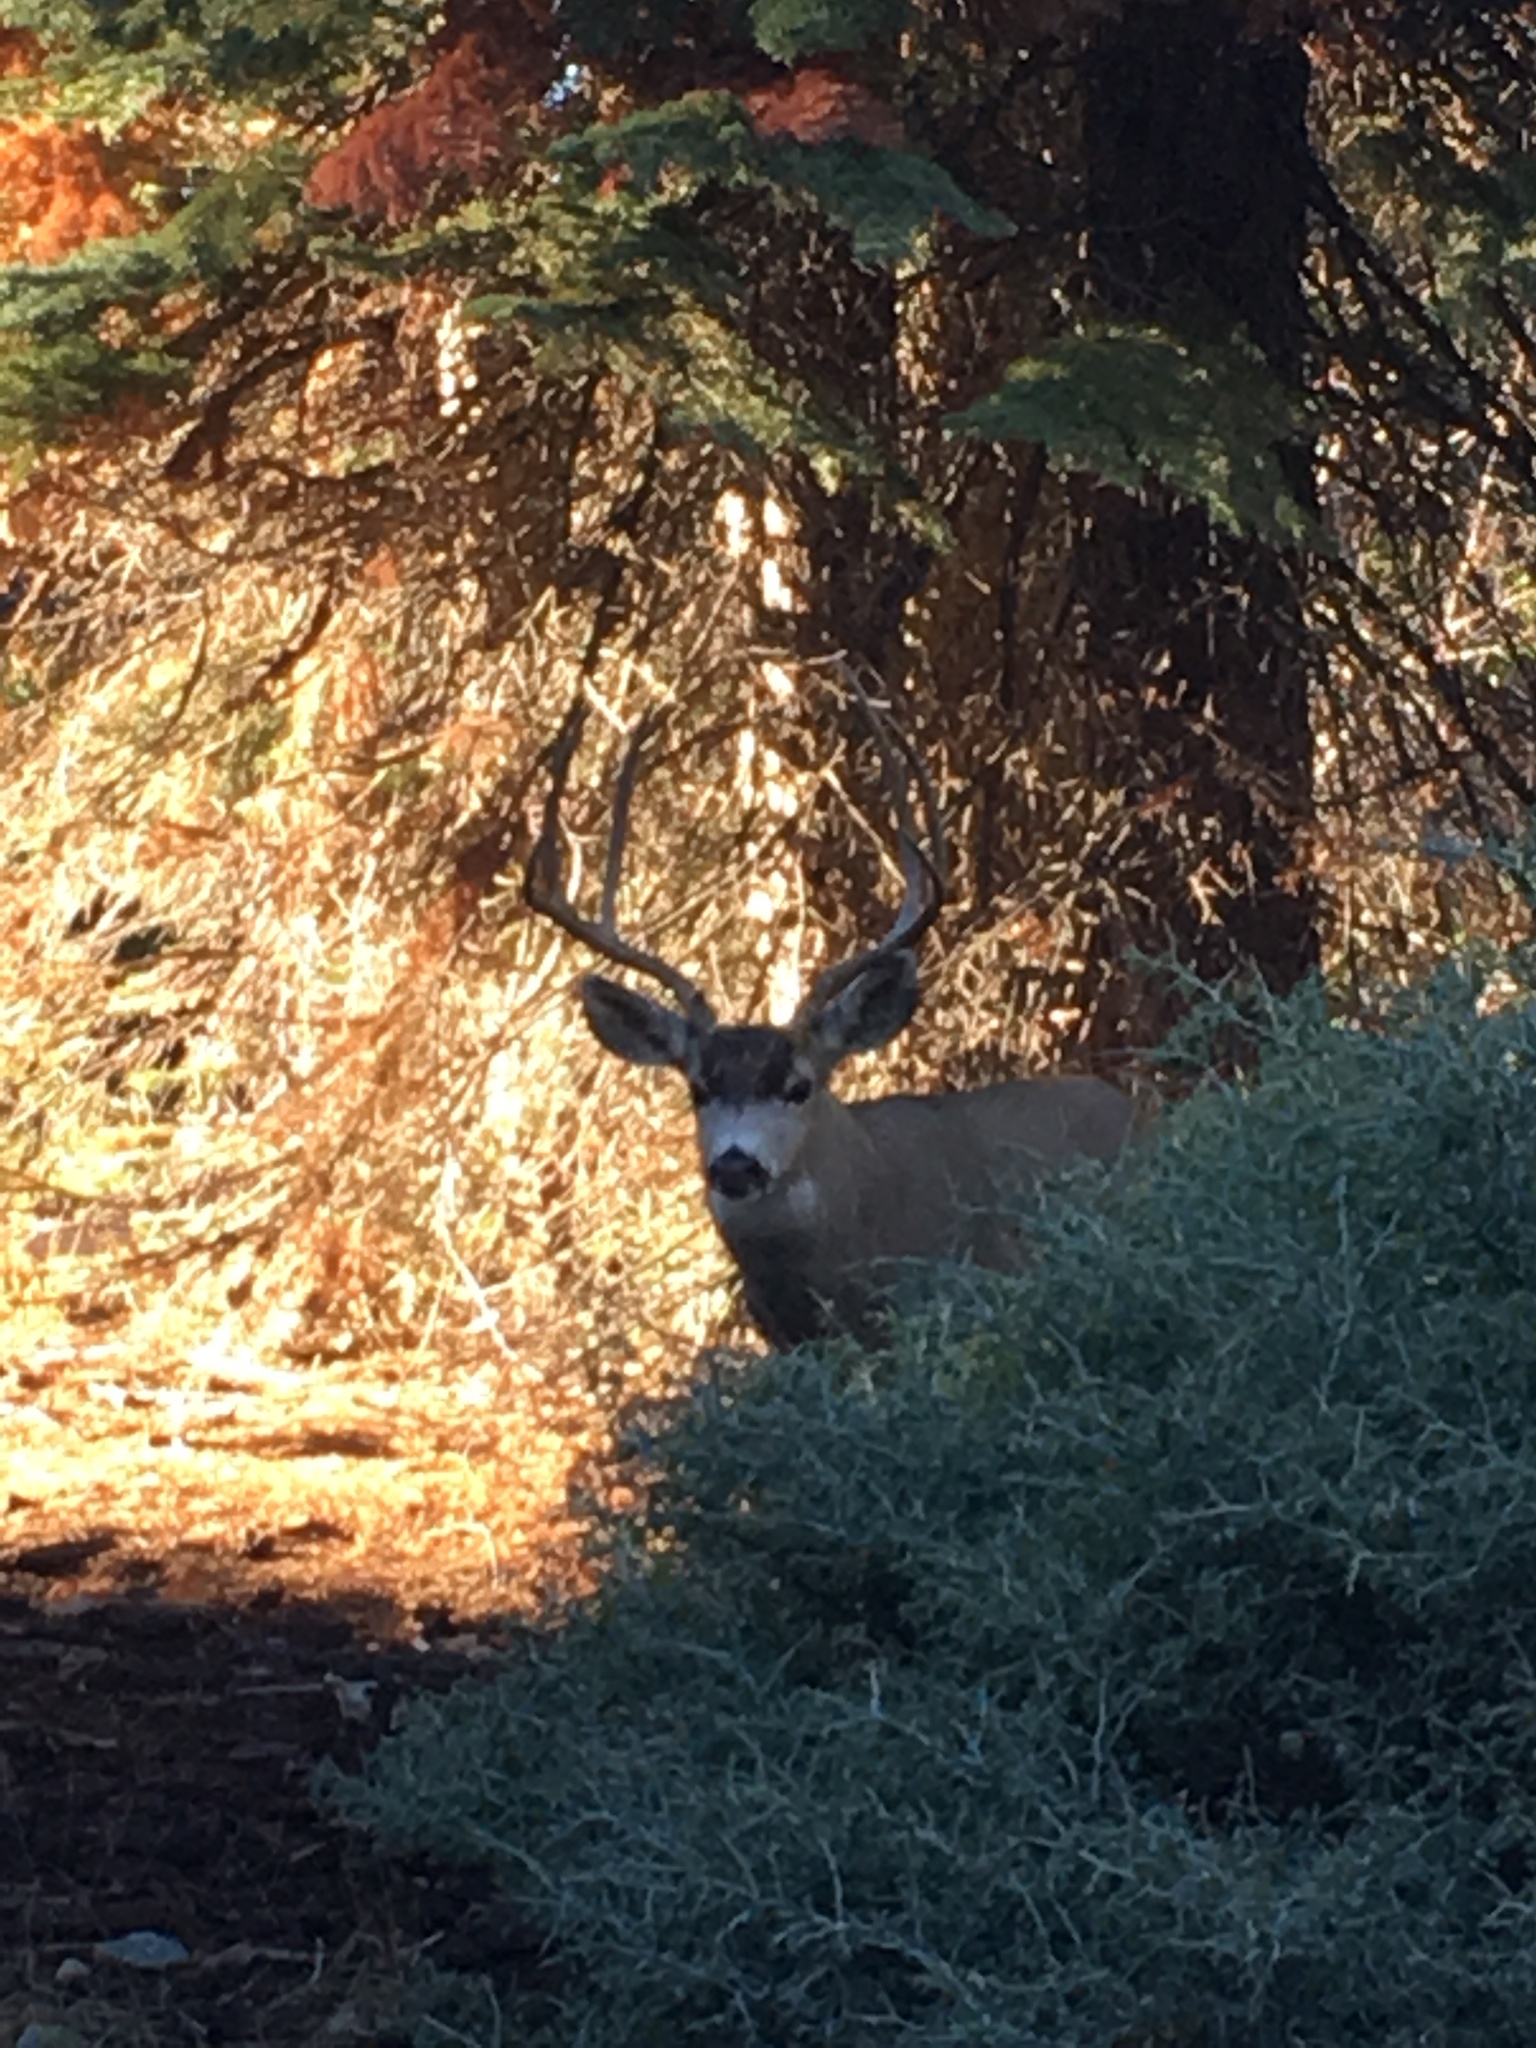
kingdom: Animalia
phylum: Chordata
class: Mammalia
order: Artiodactyla
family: Cervidae
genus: Odocoileus
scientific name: Odocoileus hemionus
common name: Mule deer
